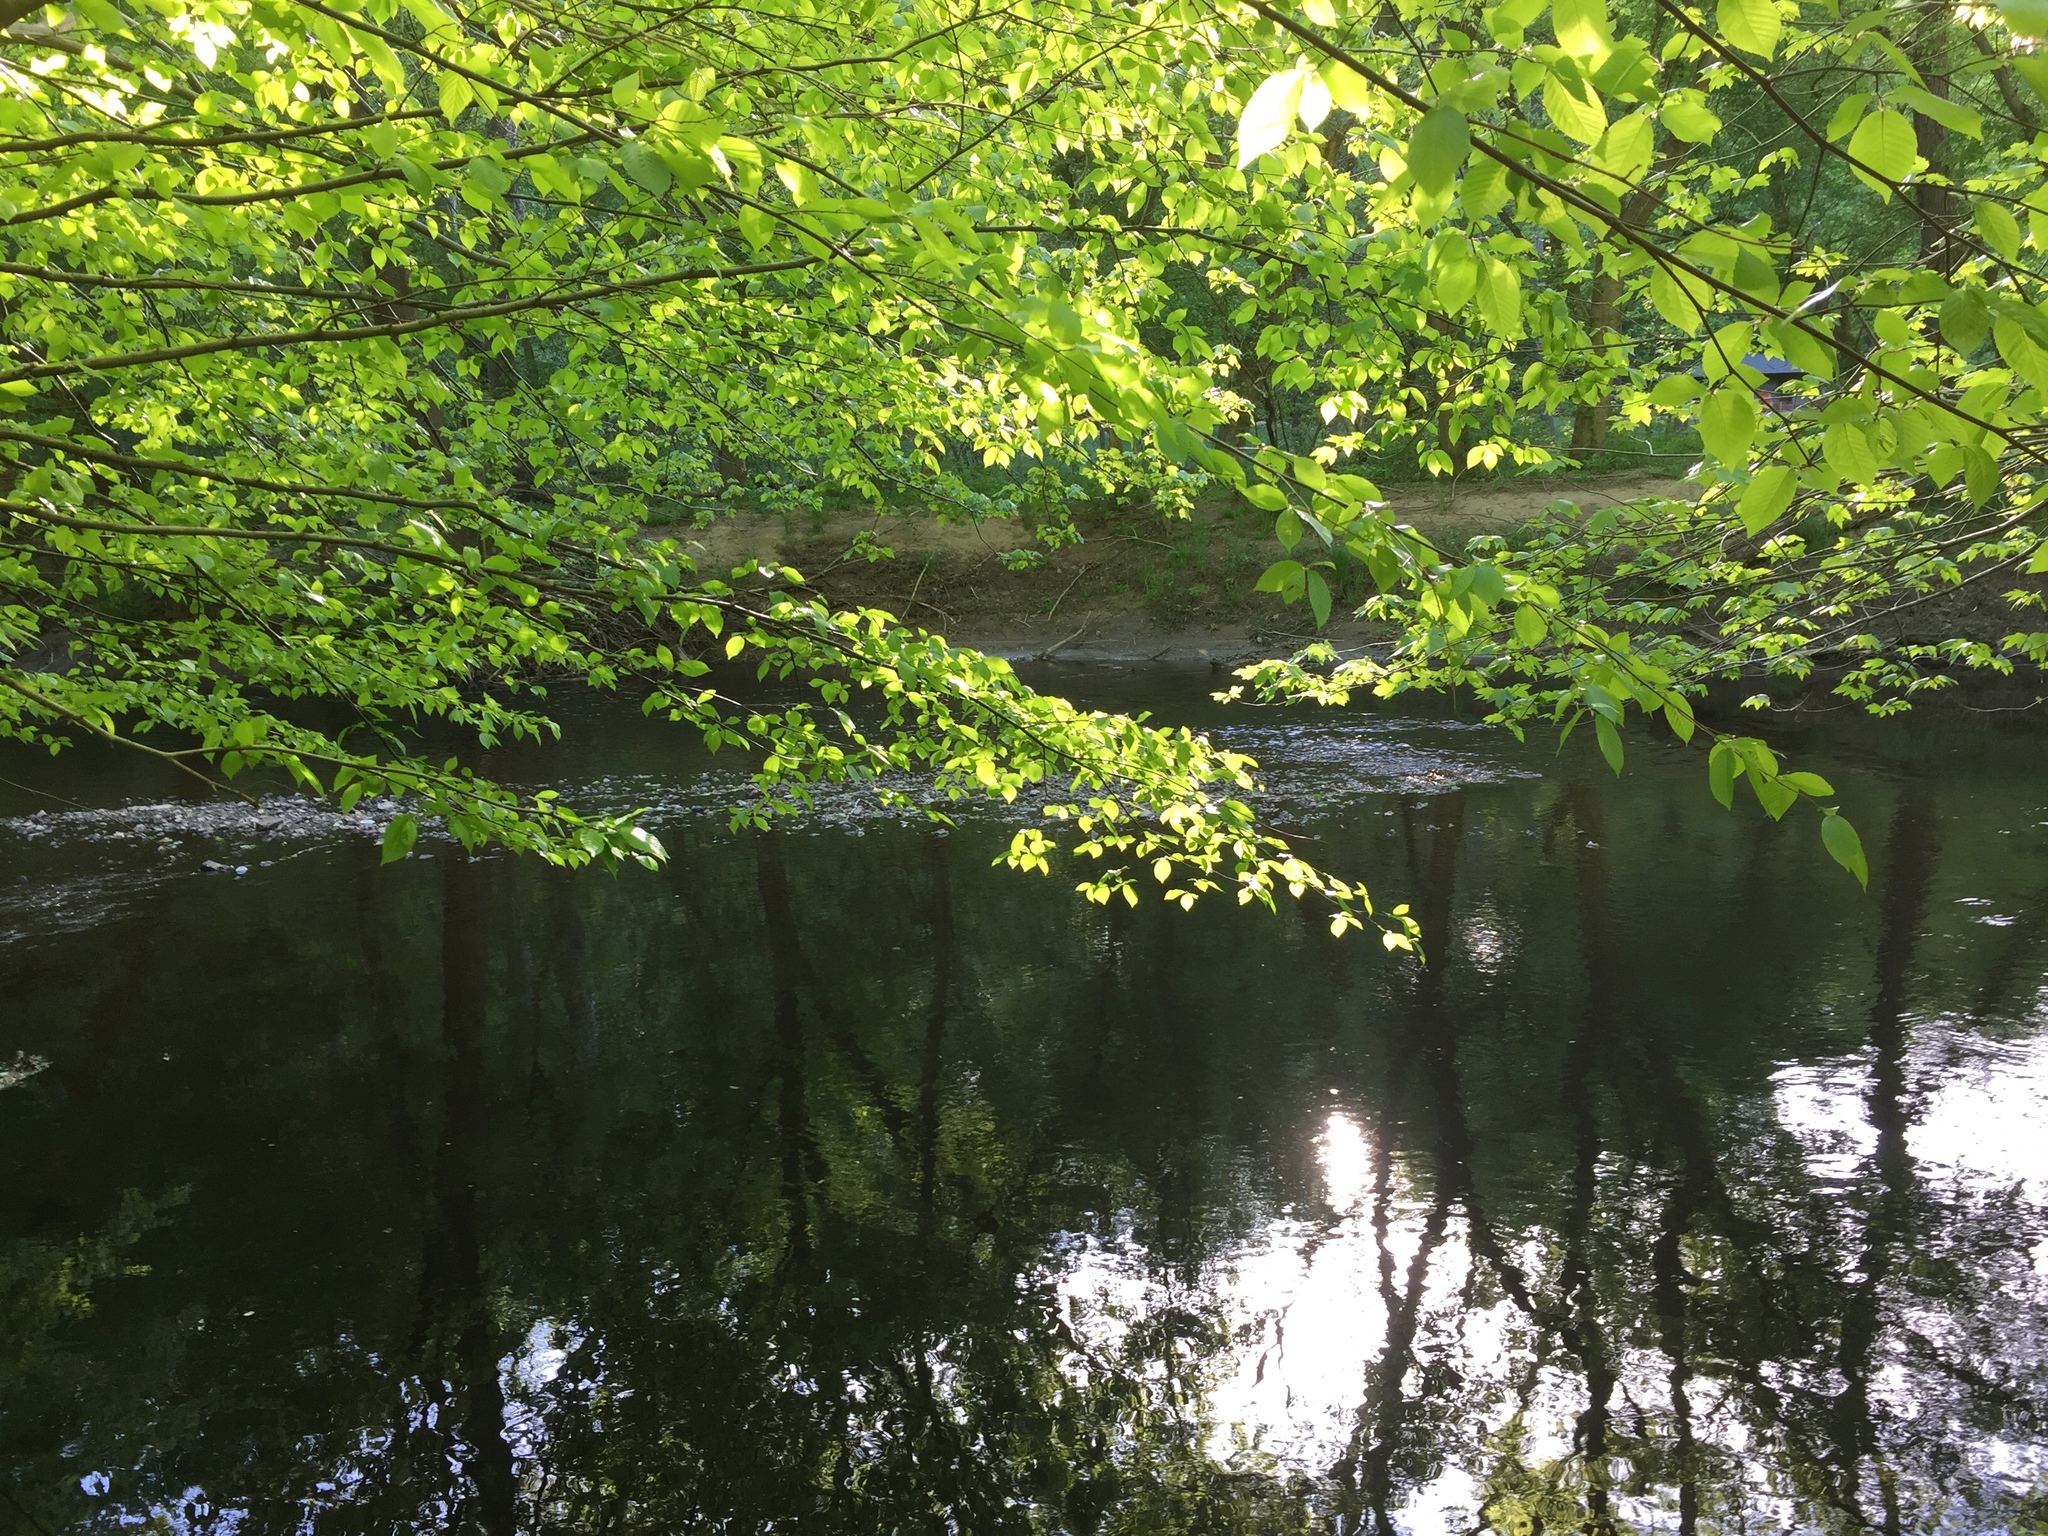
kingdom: Plantae
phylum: Tracheophyta
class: Magnoliopsida
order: Fagales
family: Betulaceae
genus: Carpinus
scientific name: Carpinus caroliniana
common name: American hornbeam
